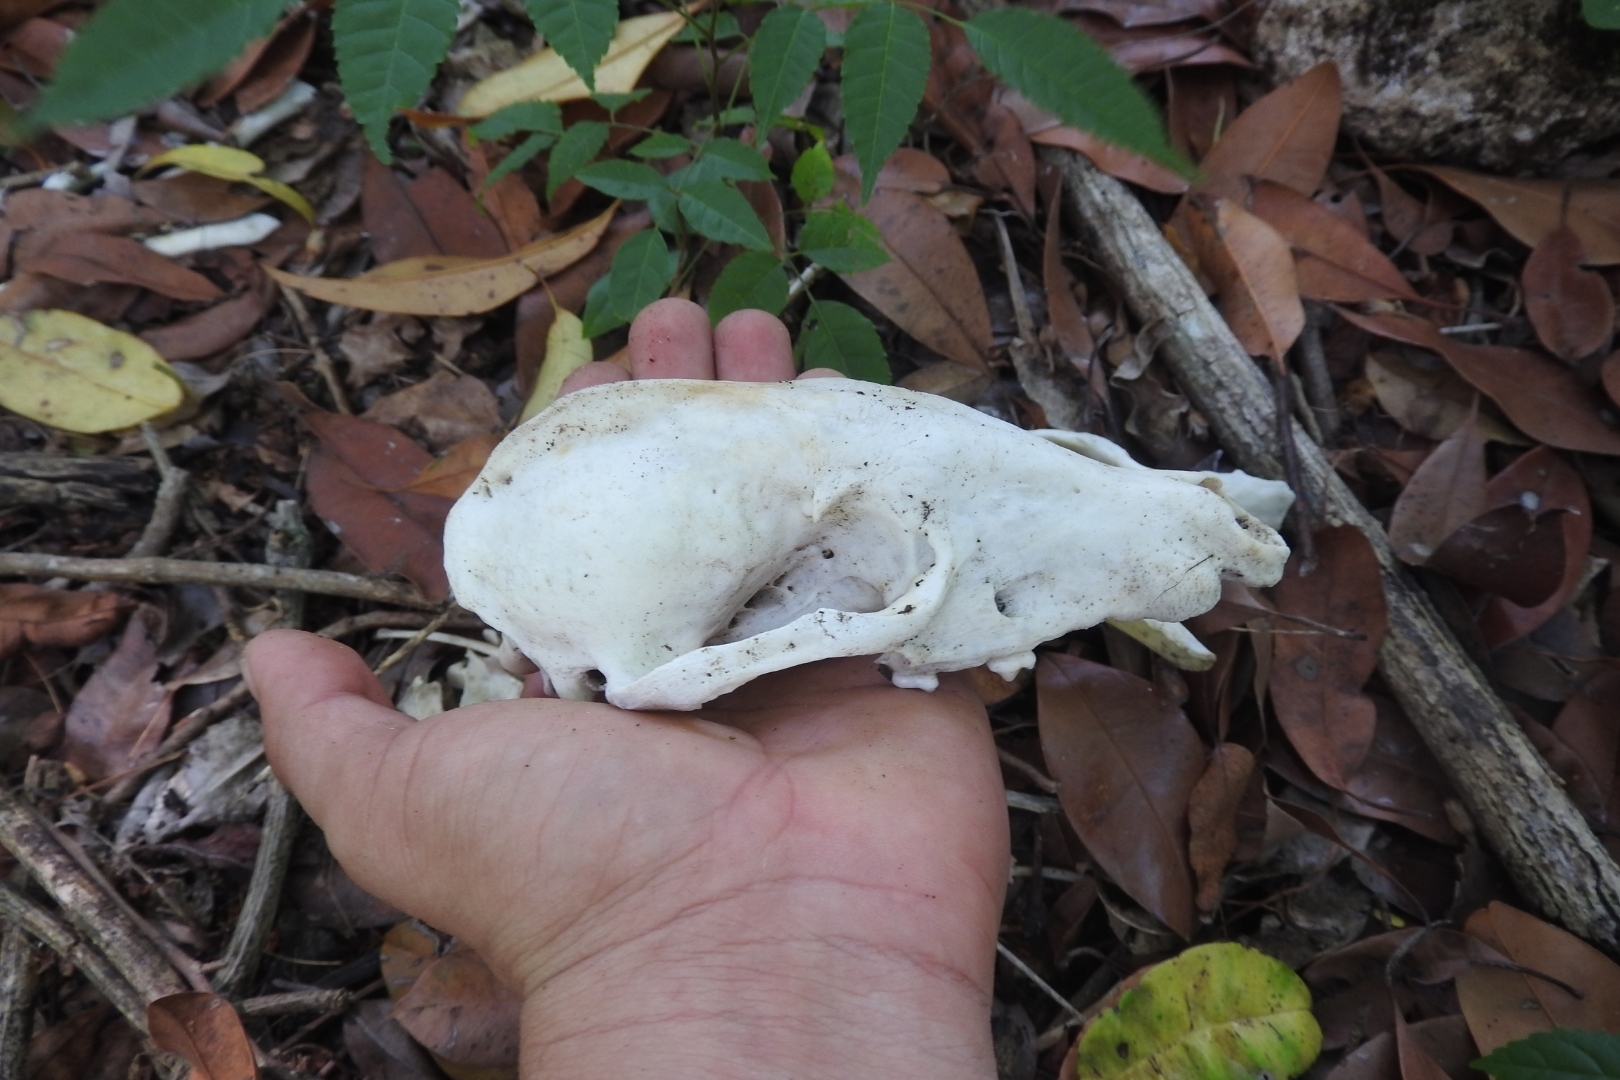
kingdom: Animalia
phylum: Chordata
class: Mammalia
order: Carnivora
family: Procyonidae
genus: Nasua
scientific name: Nasua narica
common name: White-nosed coati
